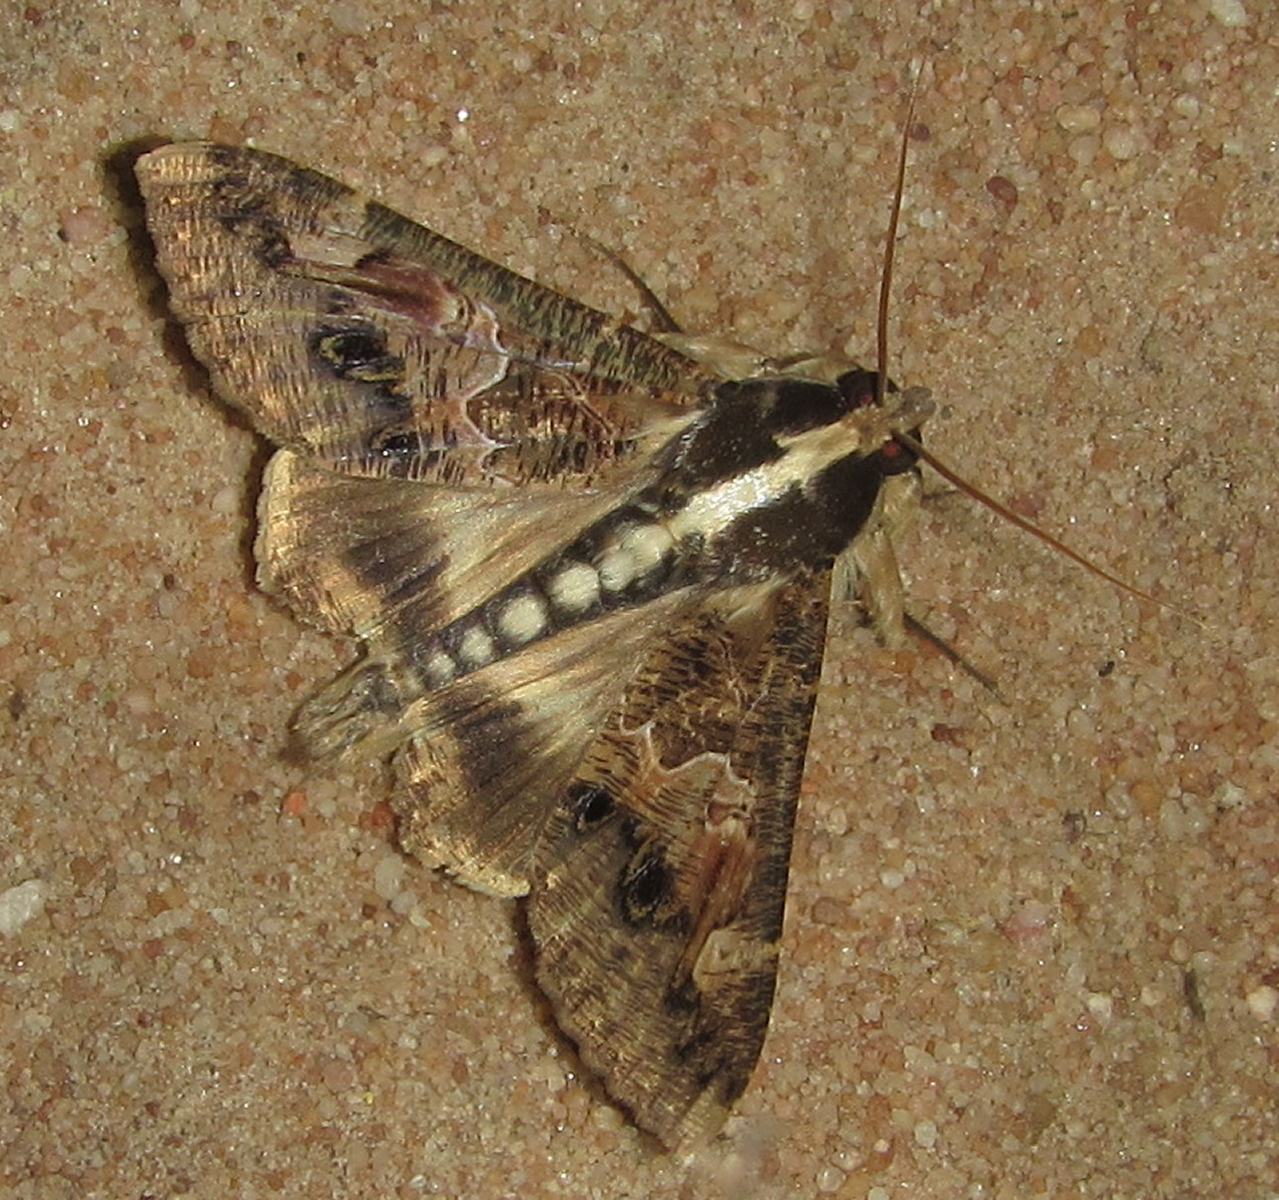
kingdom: Animalia
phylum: Arthropoda
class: Insecta
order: Lepidoptera
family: Erebidae
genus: Sphingomorpha
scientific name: Sphingomorpha chlorea
